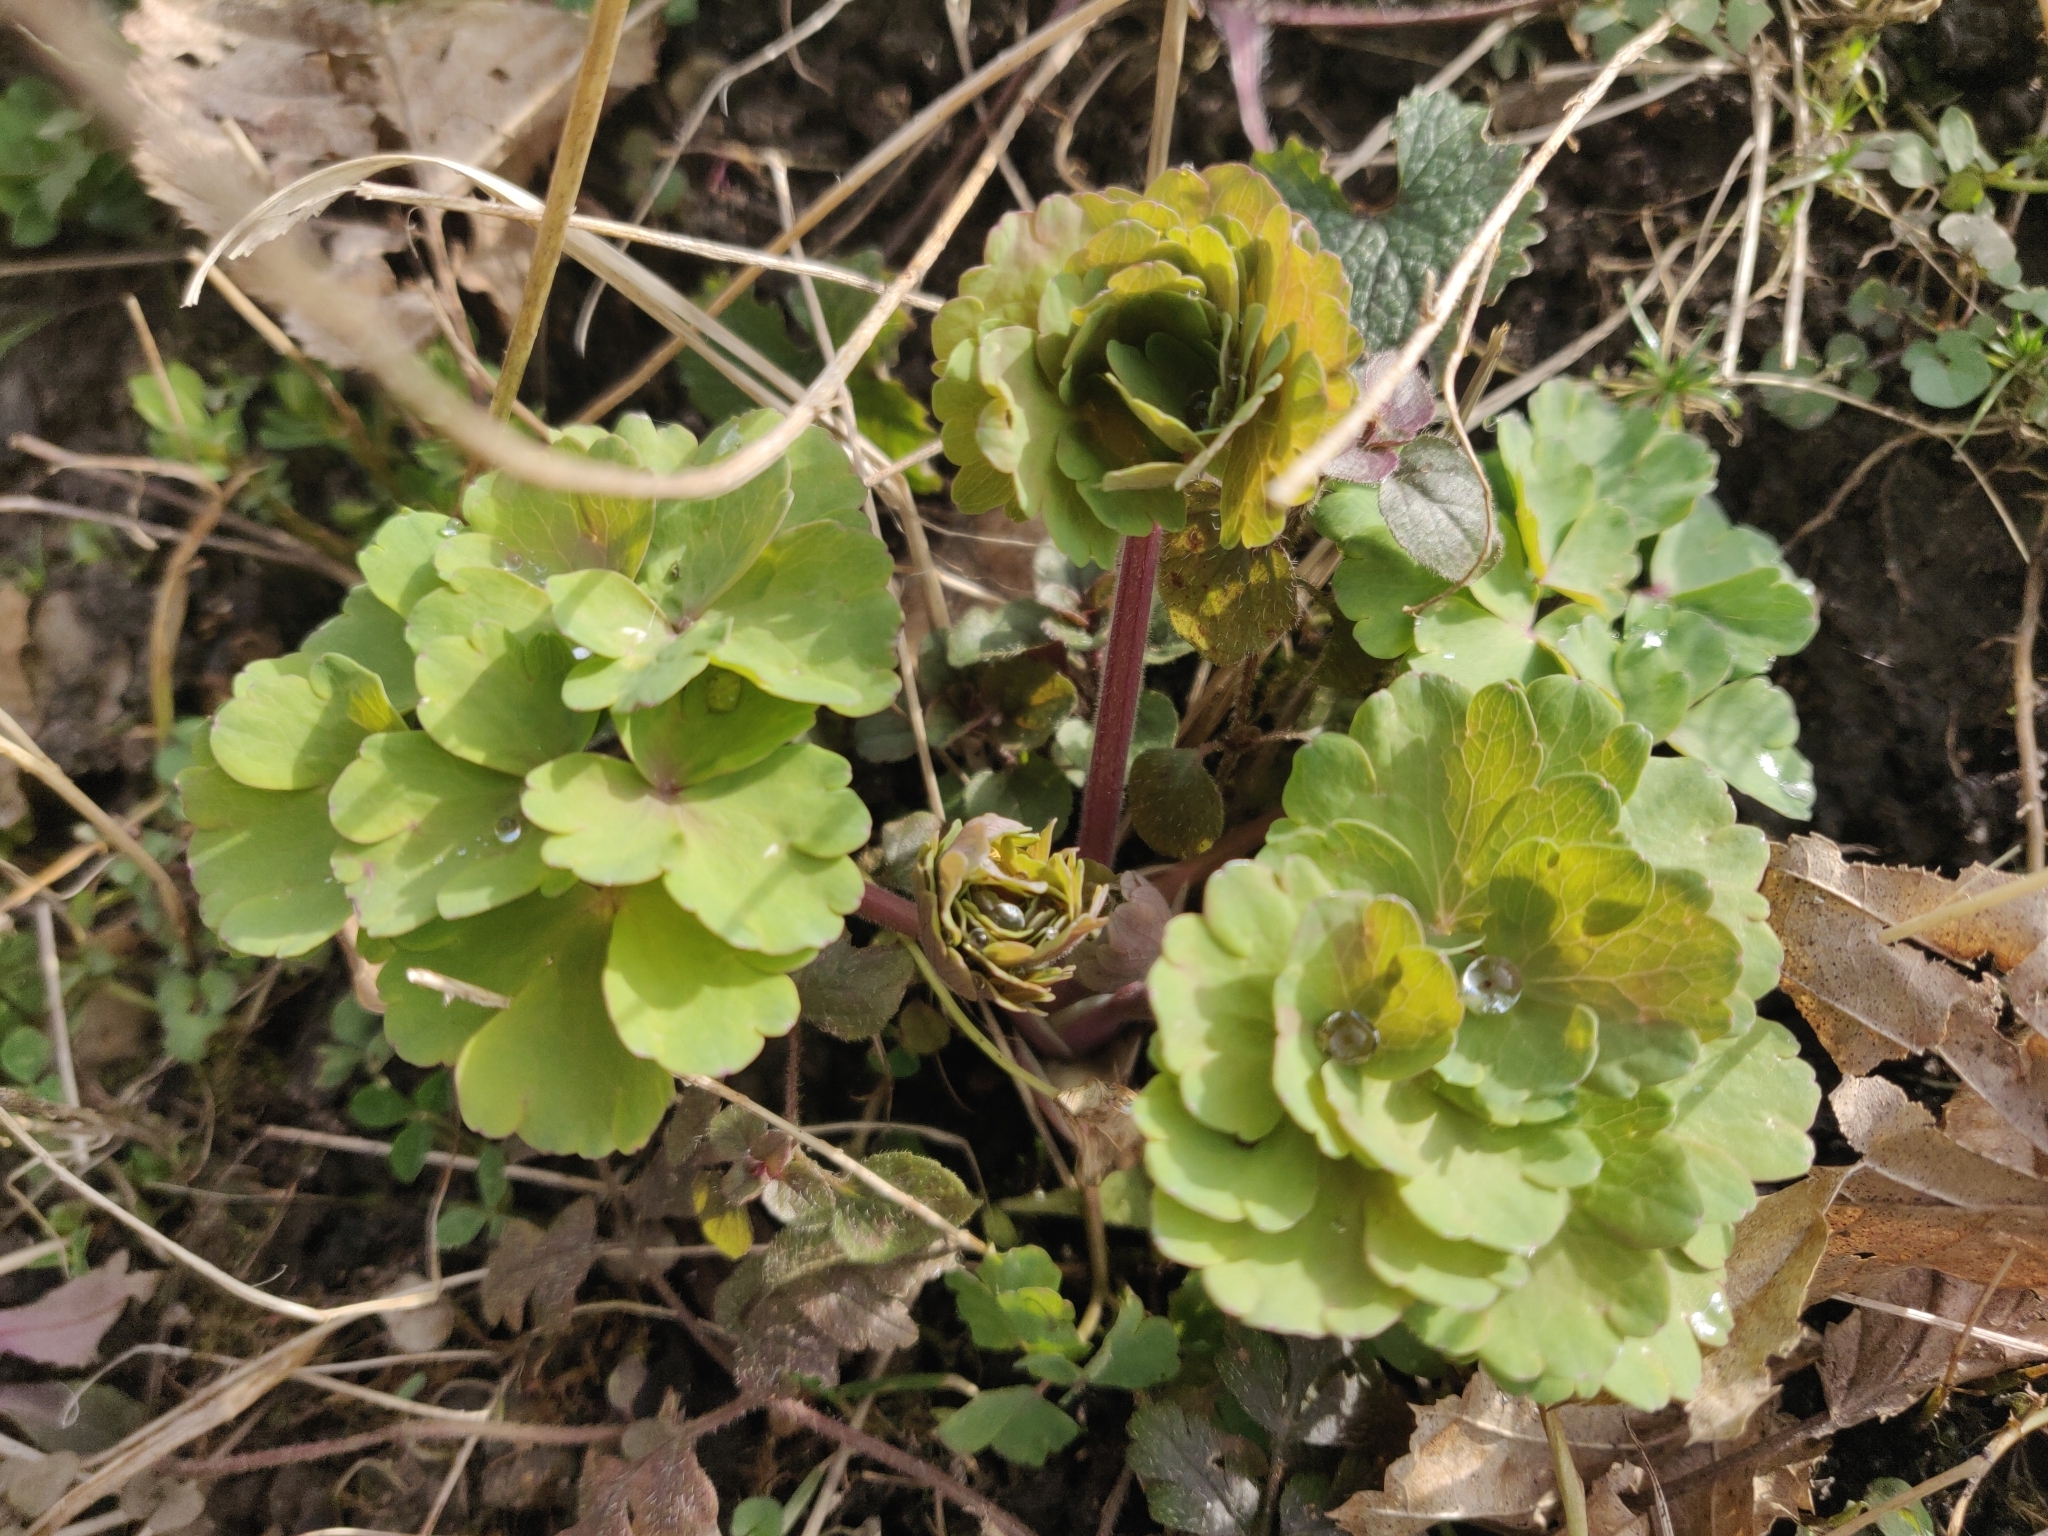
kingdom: Plantae
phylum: Tracheophyta
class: Magnoliopsida
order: Ranunculales
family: Ranunculaceae
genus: Aquilegia
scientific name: Aquilegia vulgaris
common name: Columbine
